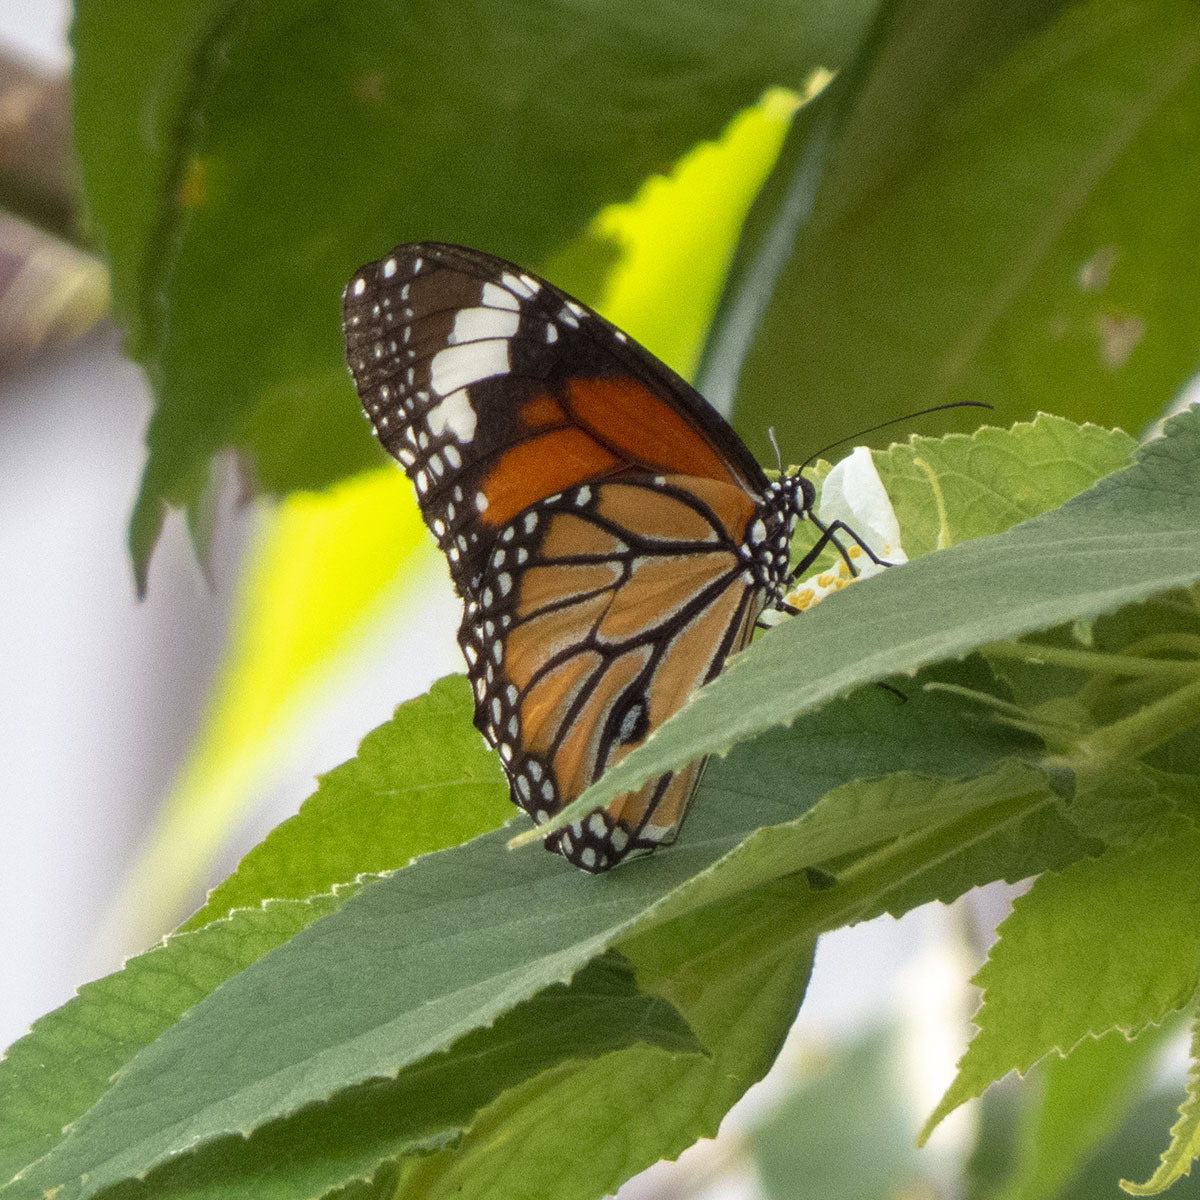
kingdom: Animalia
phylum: Arthropoda
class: Insecta
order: Lepidoptera
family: Nymphalidae
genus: Danaus
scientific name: Danaus genutia
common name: Common tiger butterfly
